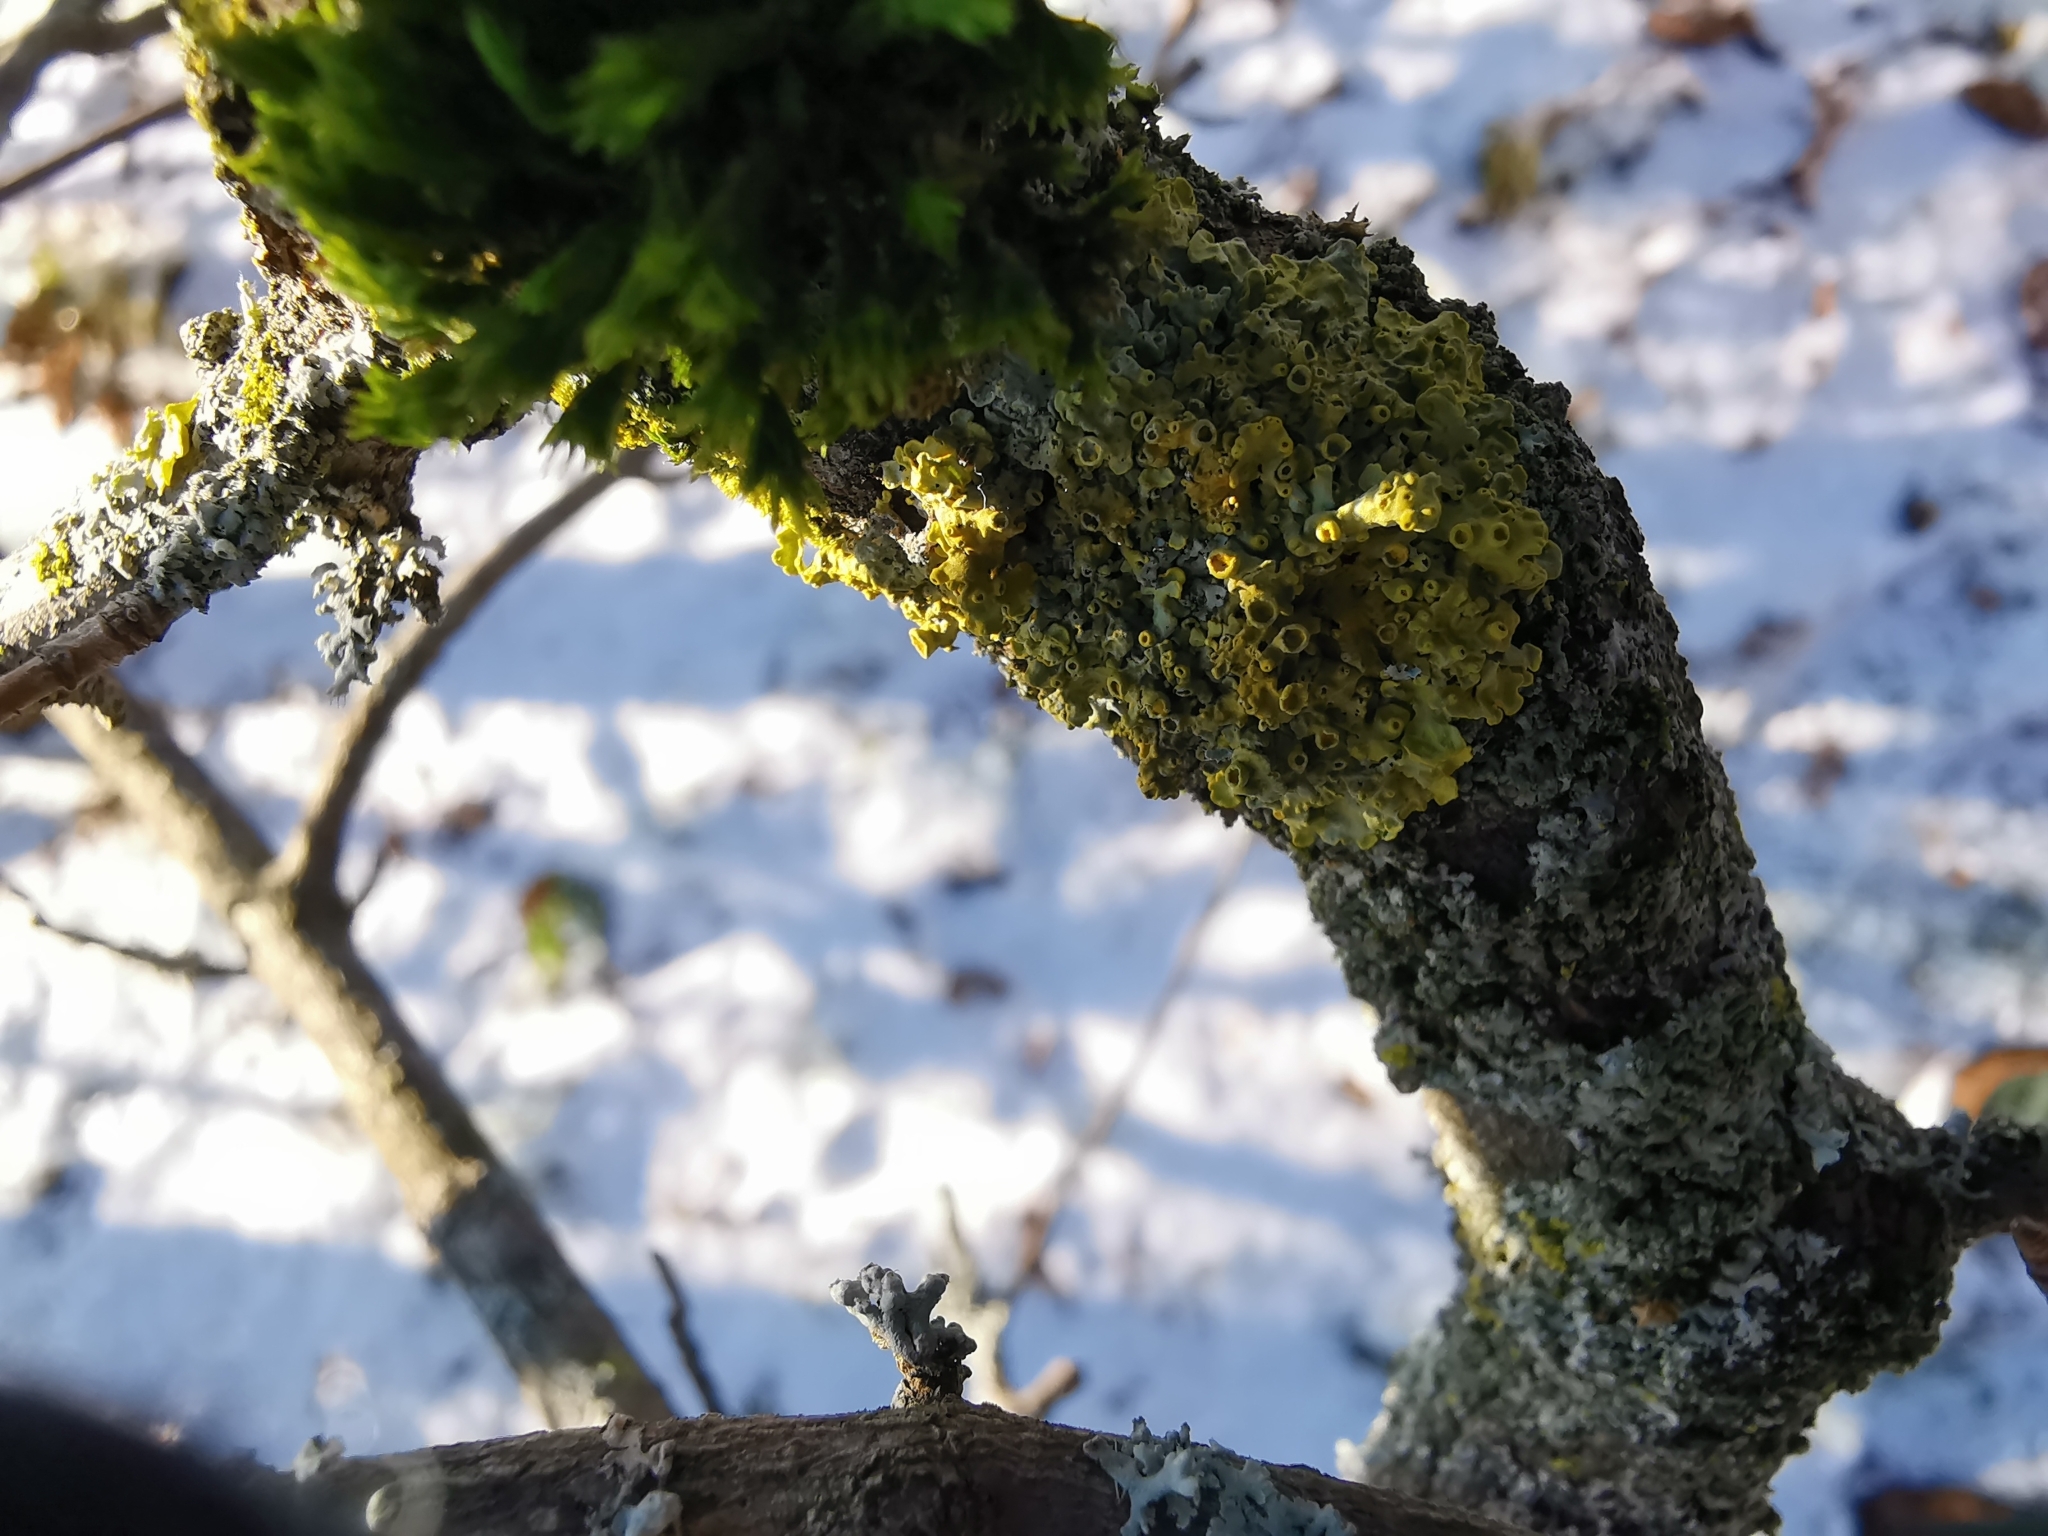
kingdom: Fungi
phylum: Ascomycota
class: Lecanoromycetes
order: Teloschistales
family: Teloschistaceae
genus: Xanthoria
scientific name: Xanthoria parietina
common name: Common orange lichen
